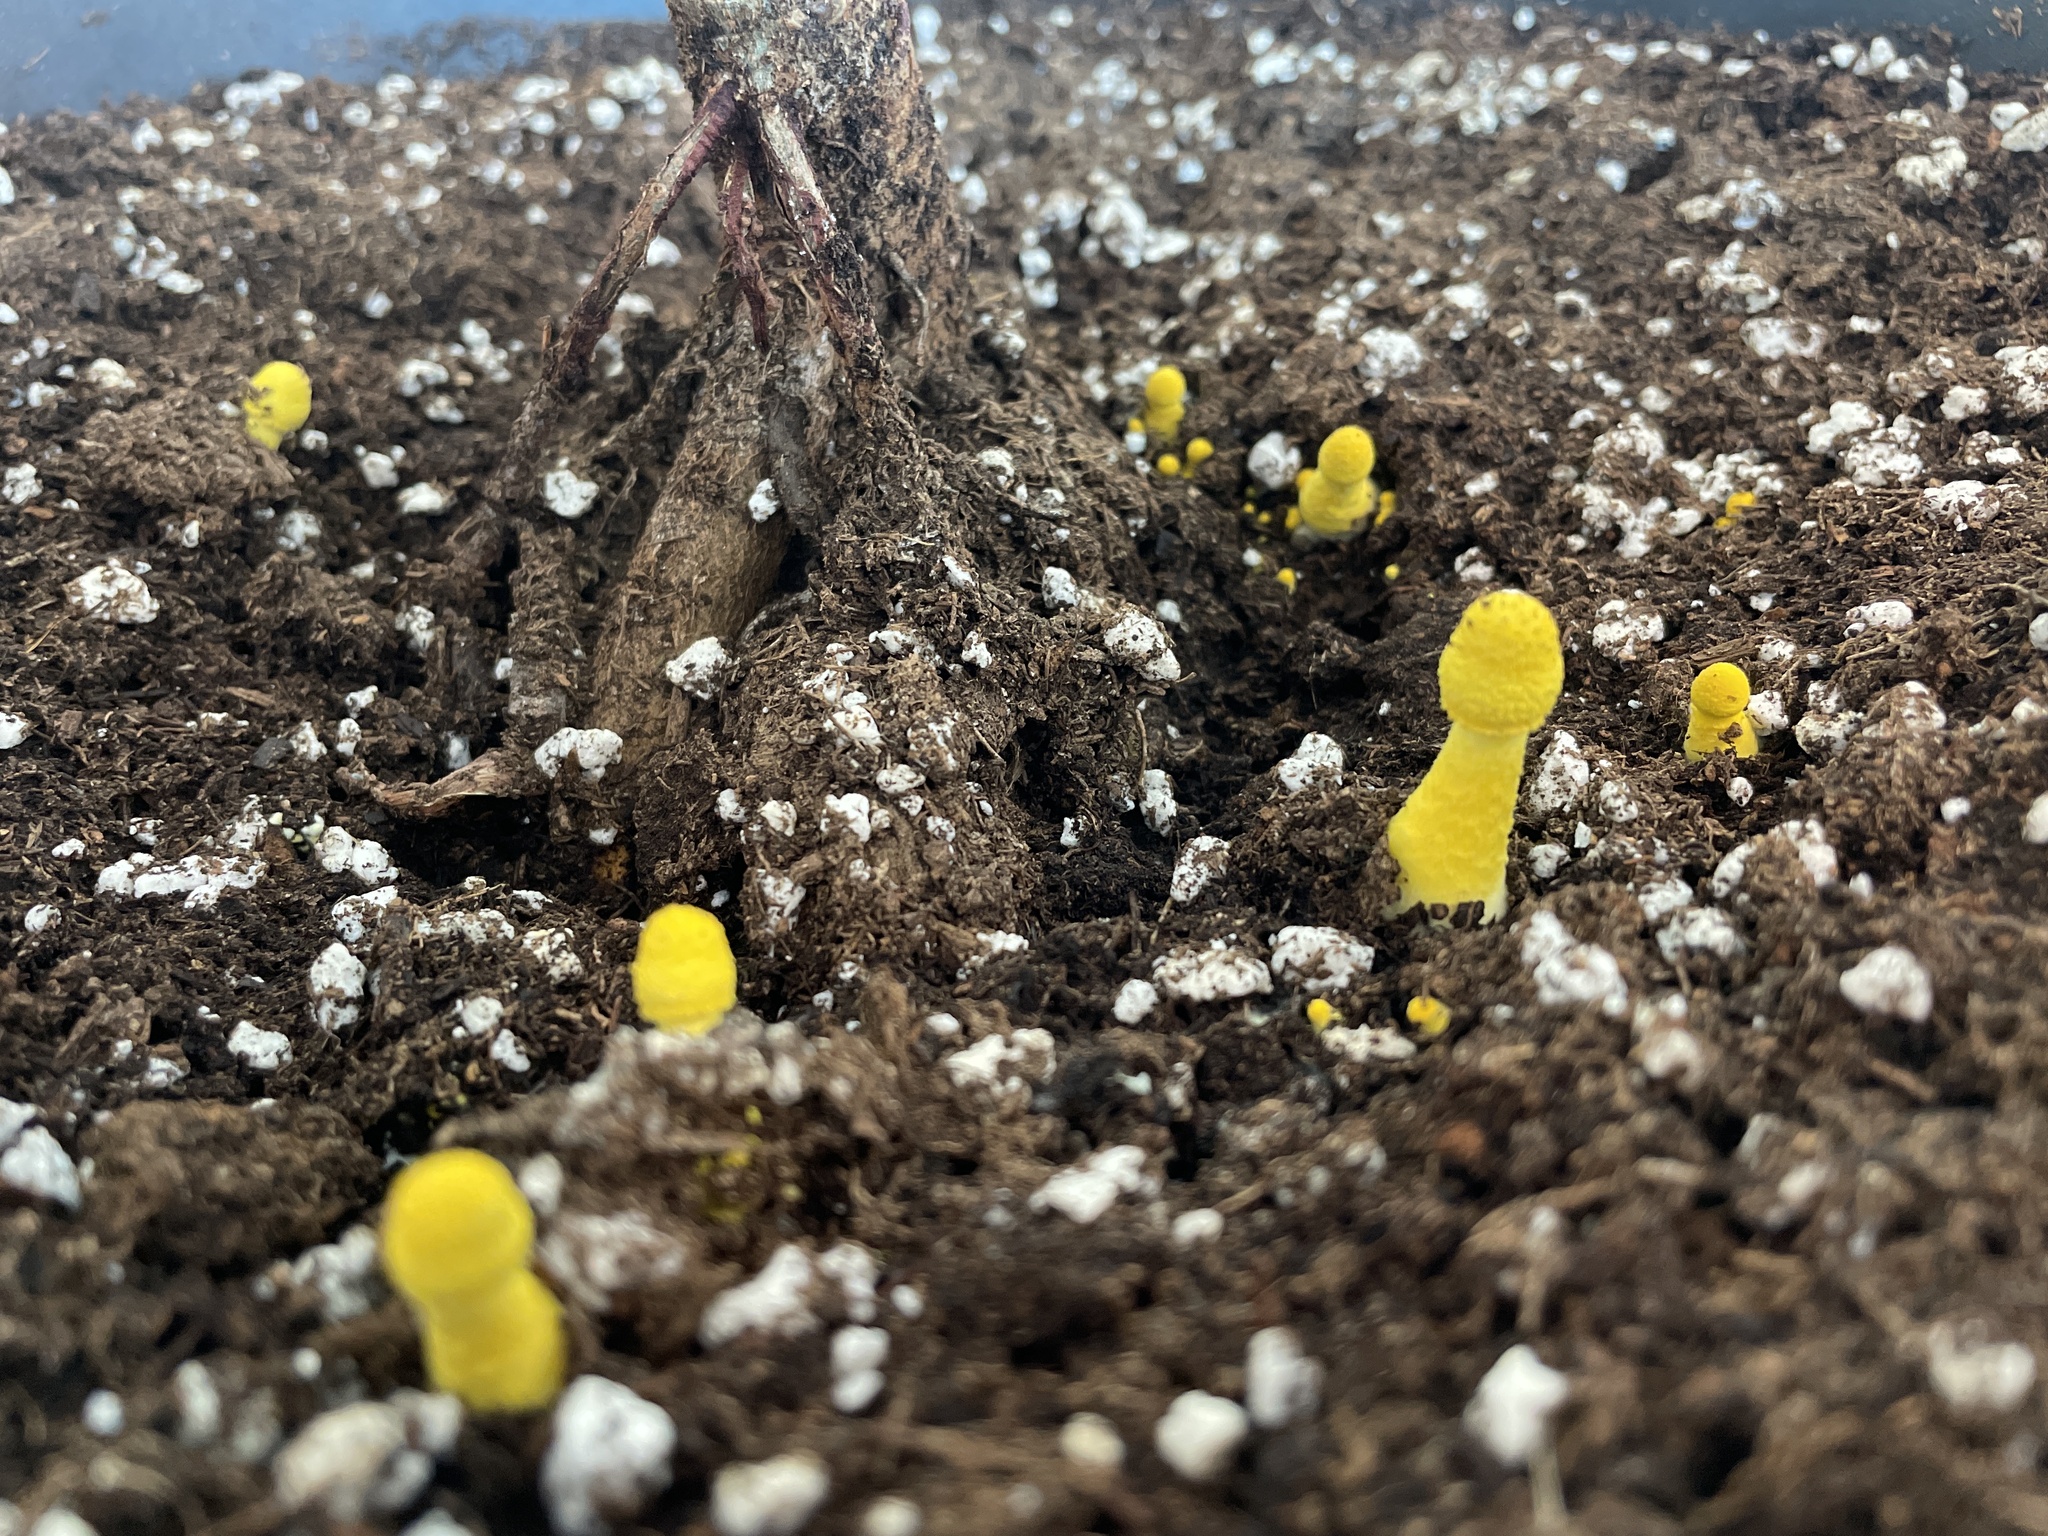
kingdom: Fungi
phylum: Basidiomycota
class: Agaricomycetes
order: Agaricales
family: Agaricaceae
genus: Leucocoprinus
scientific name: Leucocoprinus birnbaumii
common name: Plantpot dapperling
